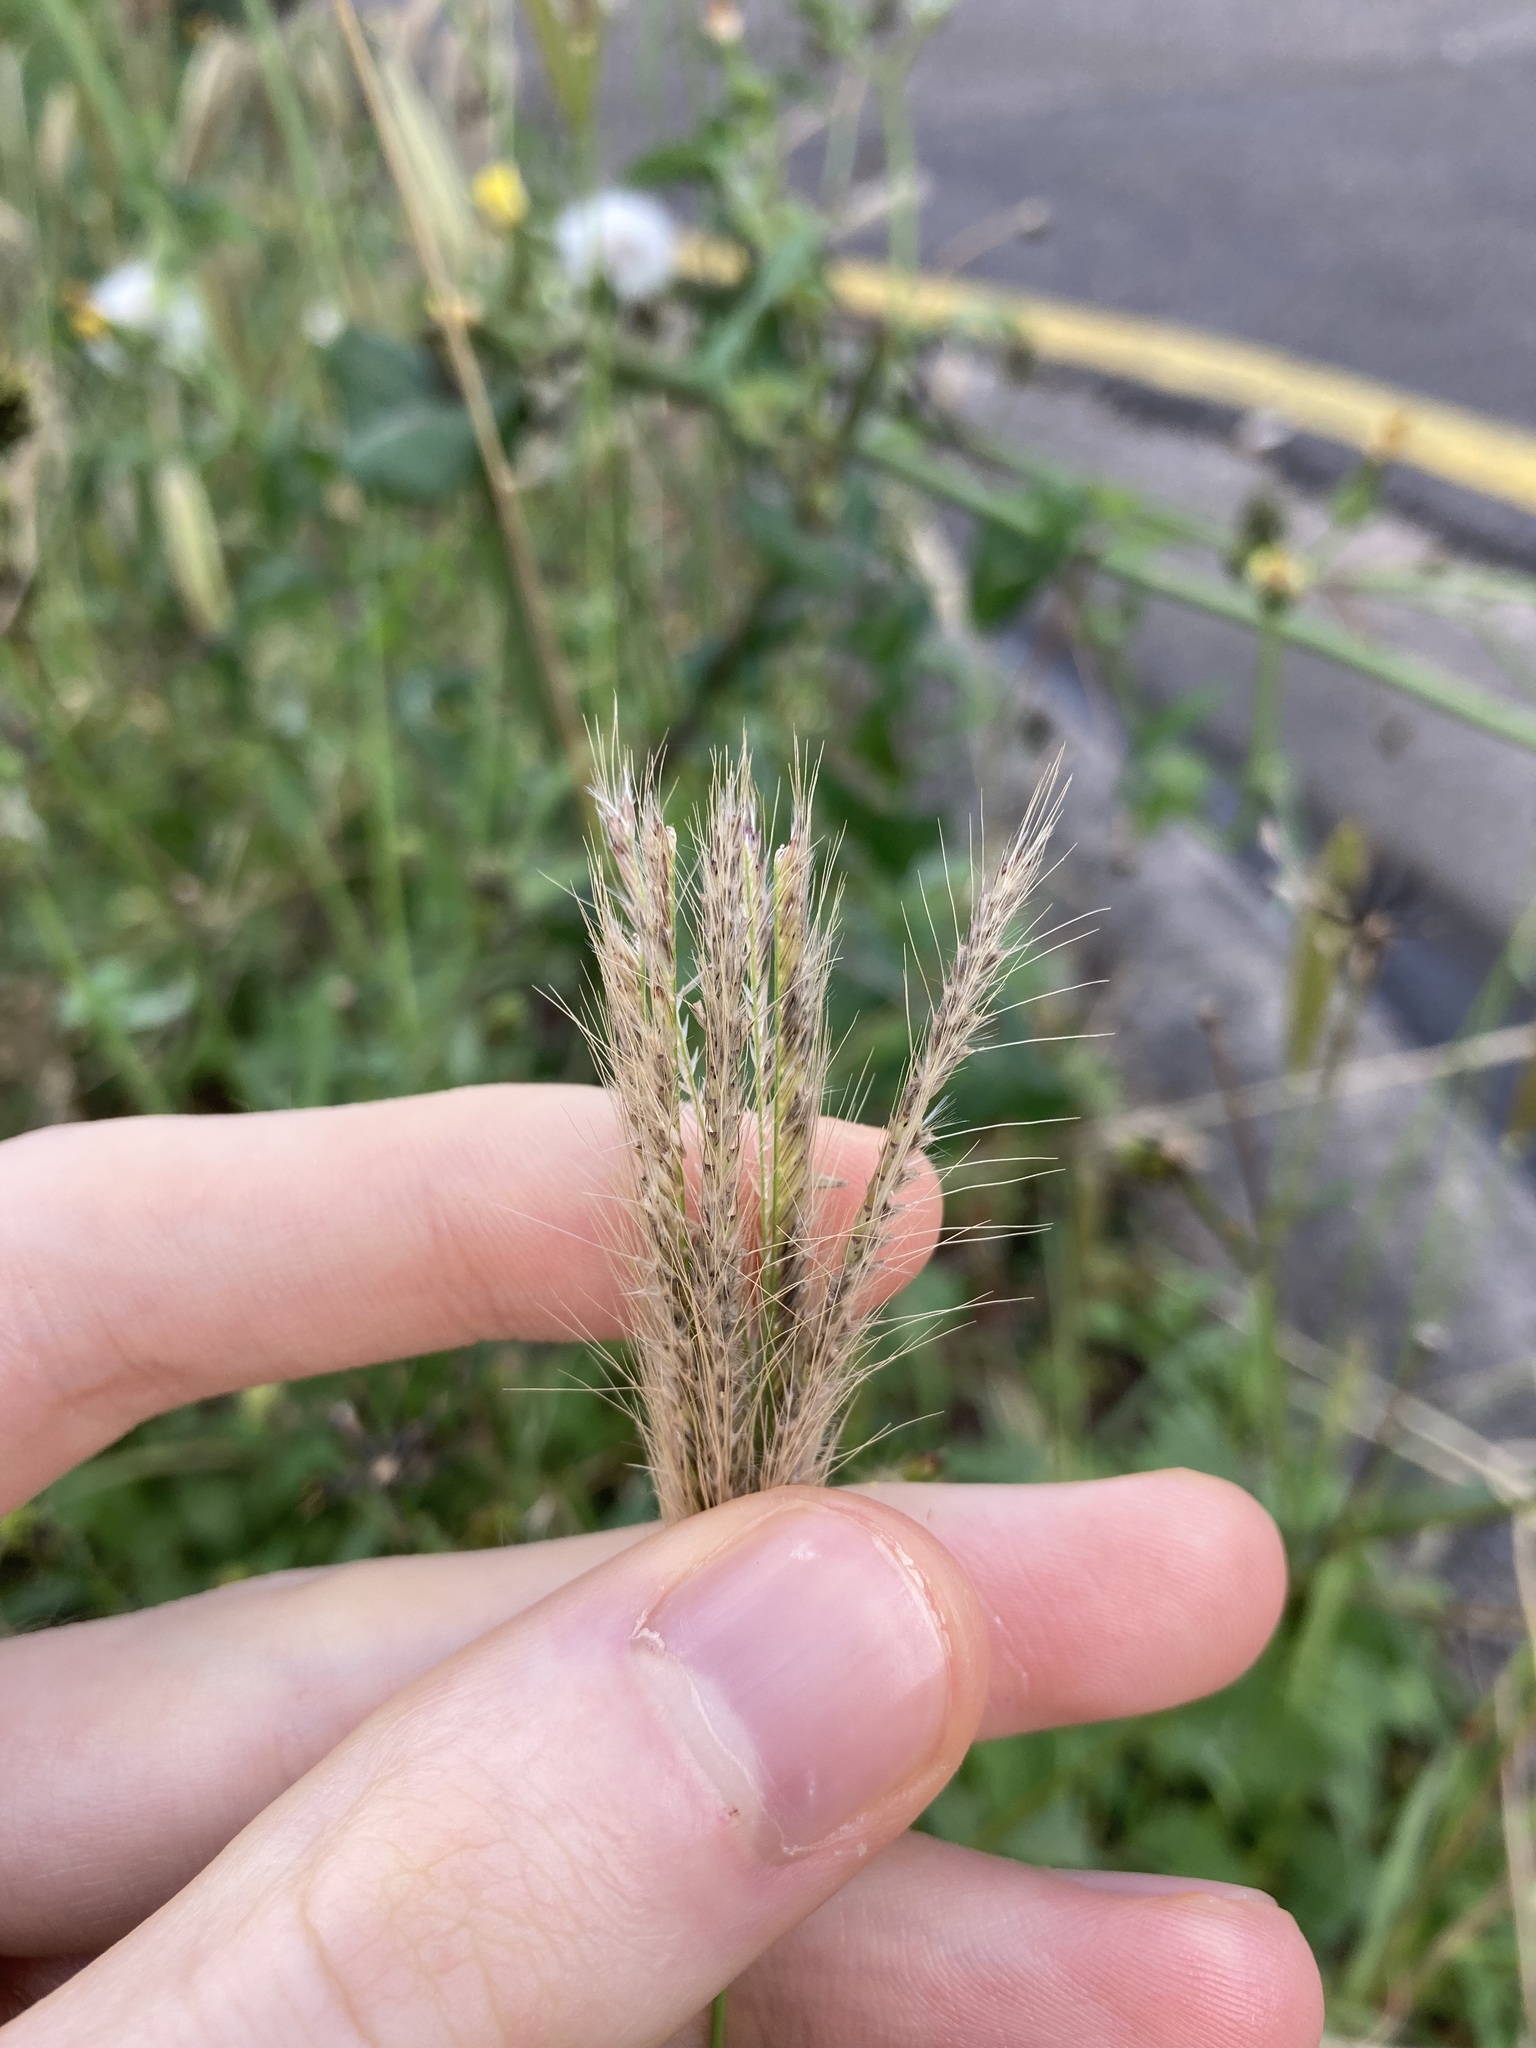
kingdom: Plantae
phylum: Tracheophyta
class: Liliopsida
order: Poales
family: Poaceae
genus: Chloris
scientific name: Chloris virgata
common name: Feathery rhodes-grass
